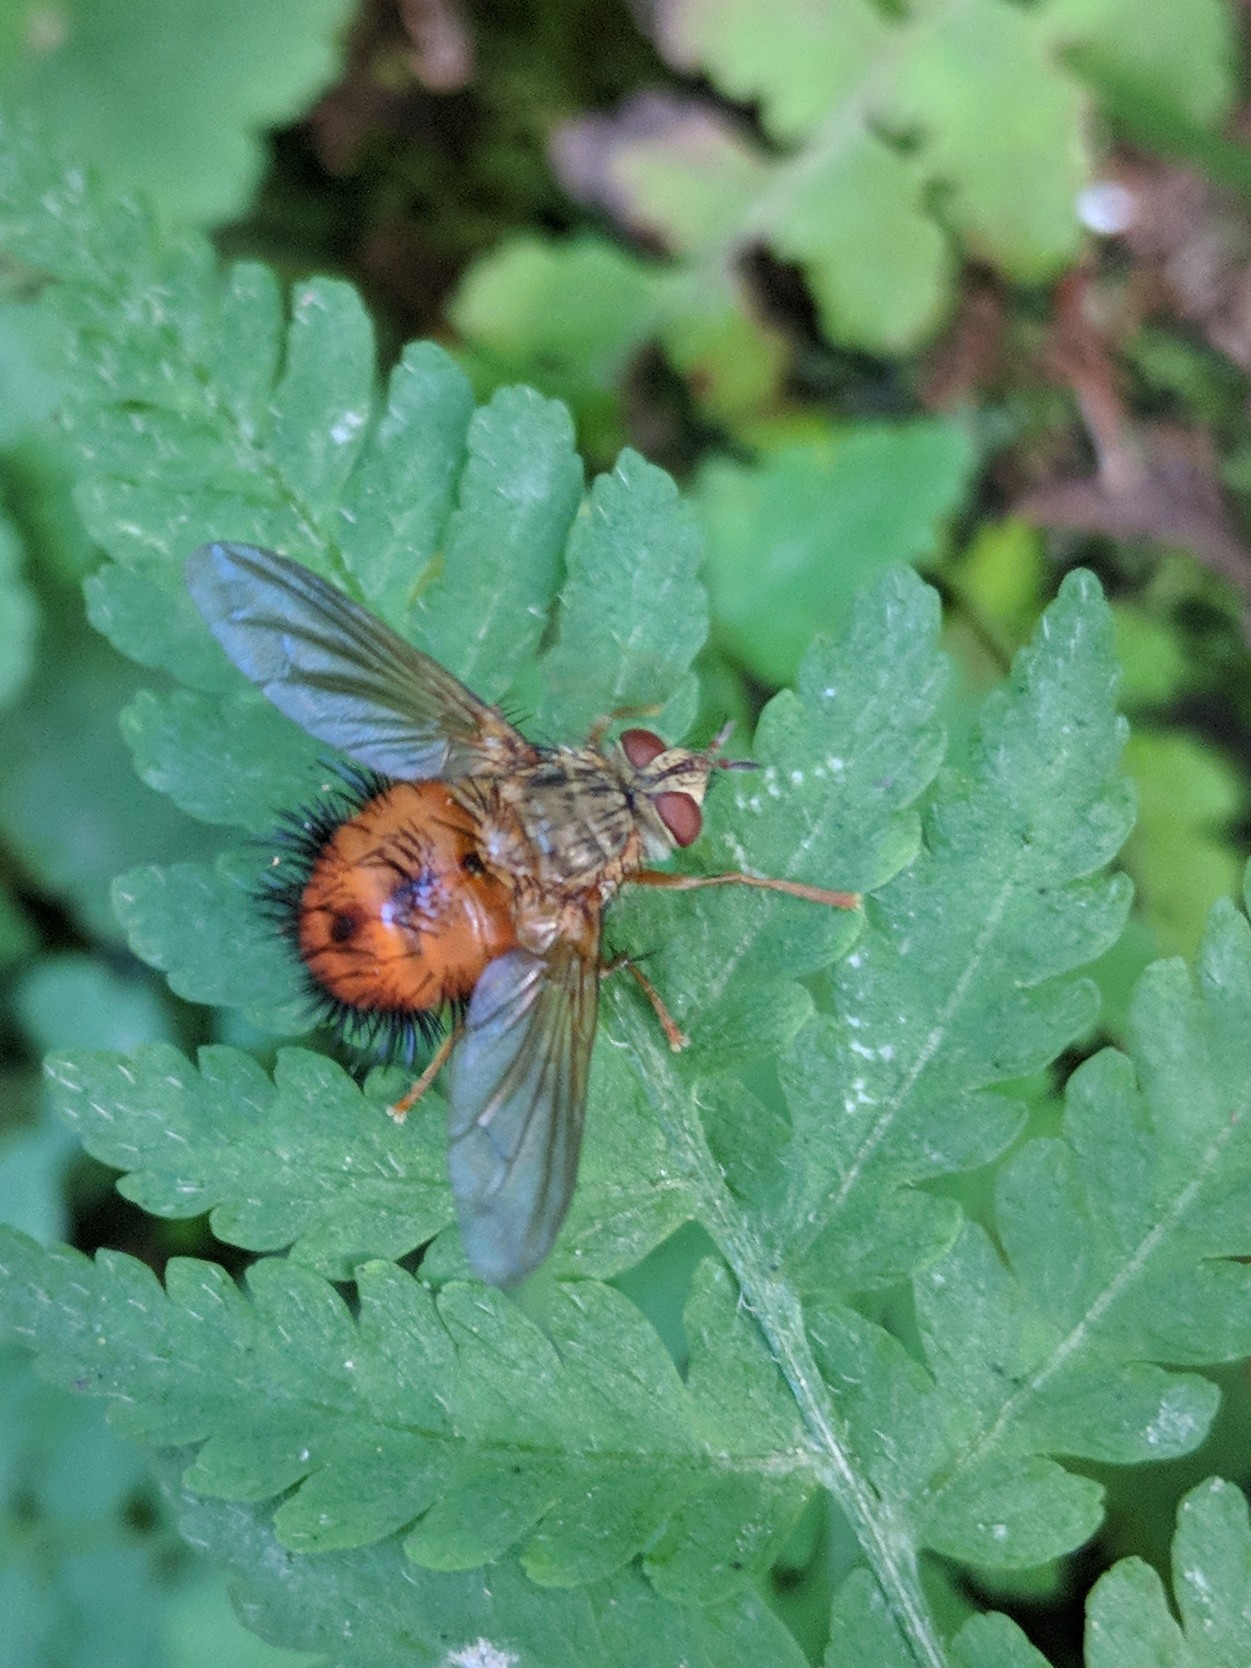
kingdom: Animalia
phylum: Arthropoda
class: Insecta
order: Diptera
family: Tachinidae
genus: Hystricia
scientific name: Hystricia abrupta
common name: Tomato bristle fly
